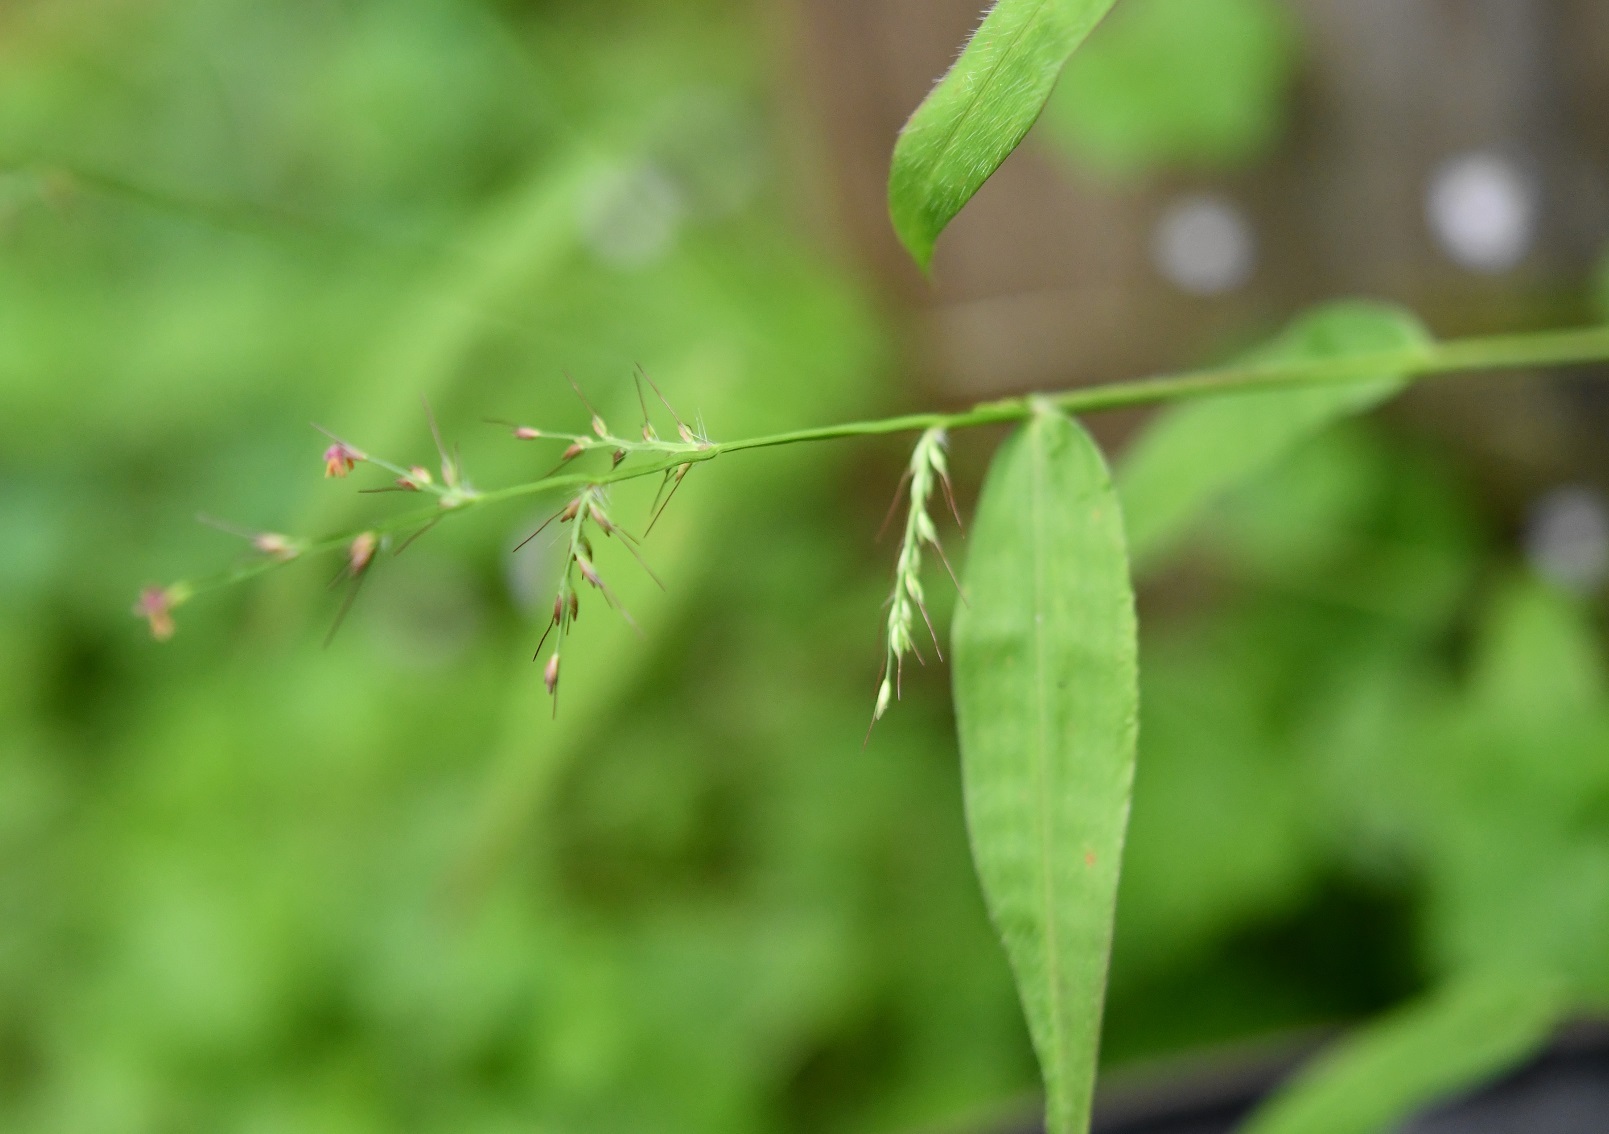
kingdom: Plantae
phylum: Tracheophyta
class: Liliopsida
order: Poales
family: Poaceae
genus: Oplismenus
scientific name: Oplismenus hirtellus
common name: Basketgrass
